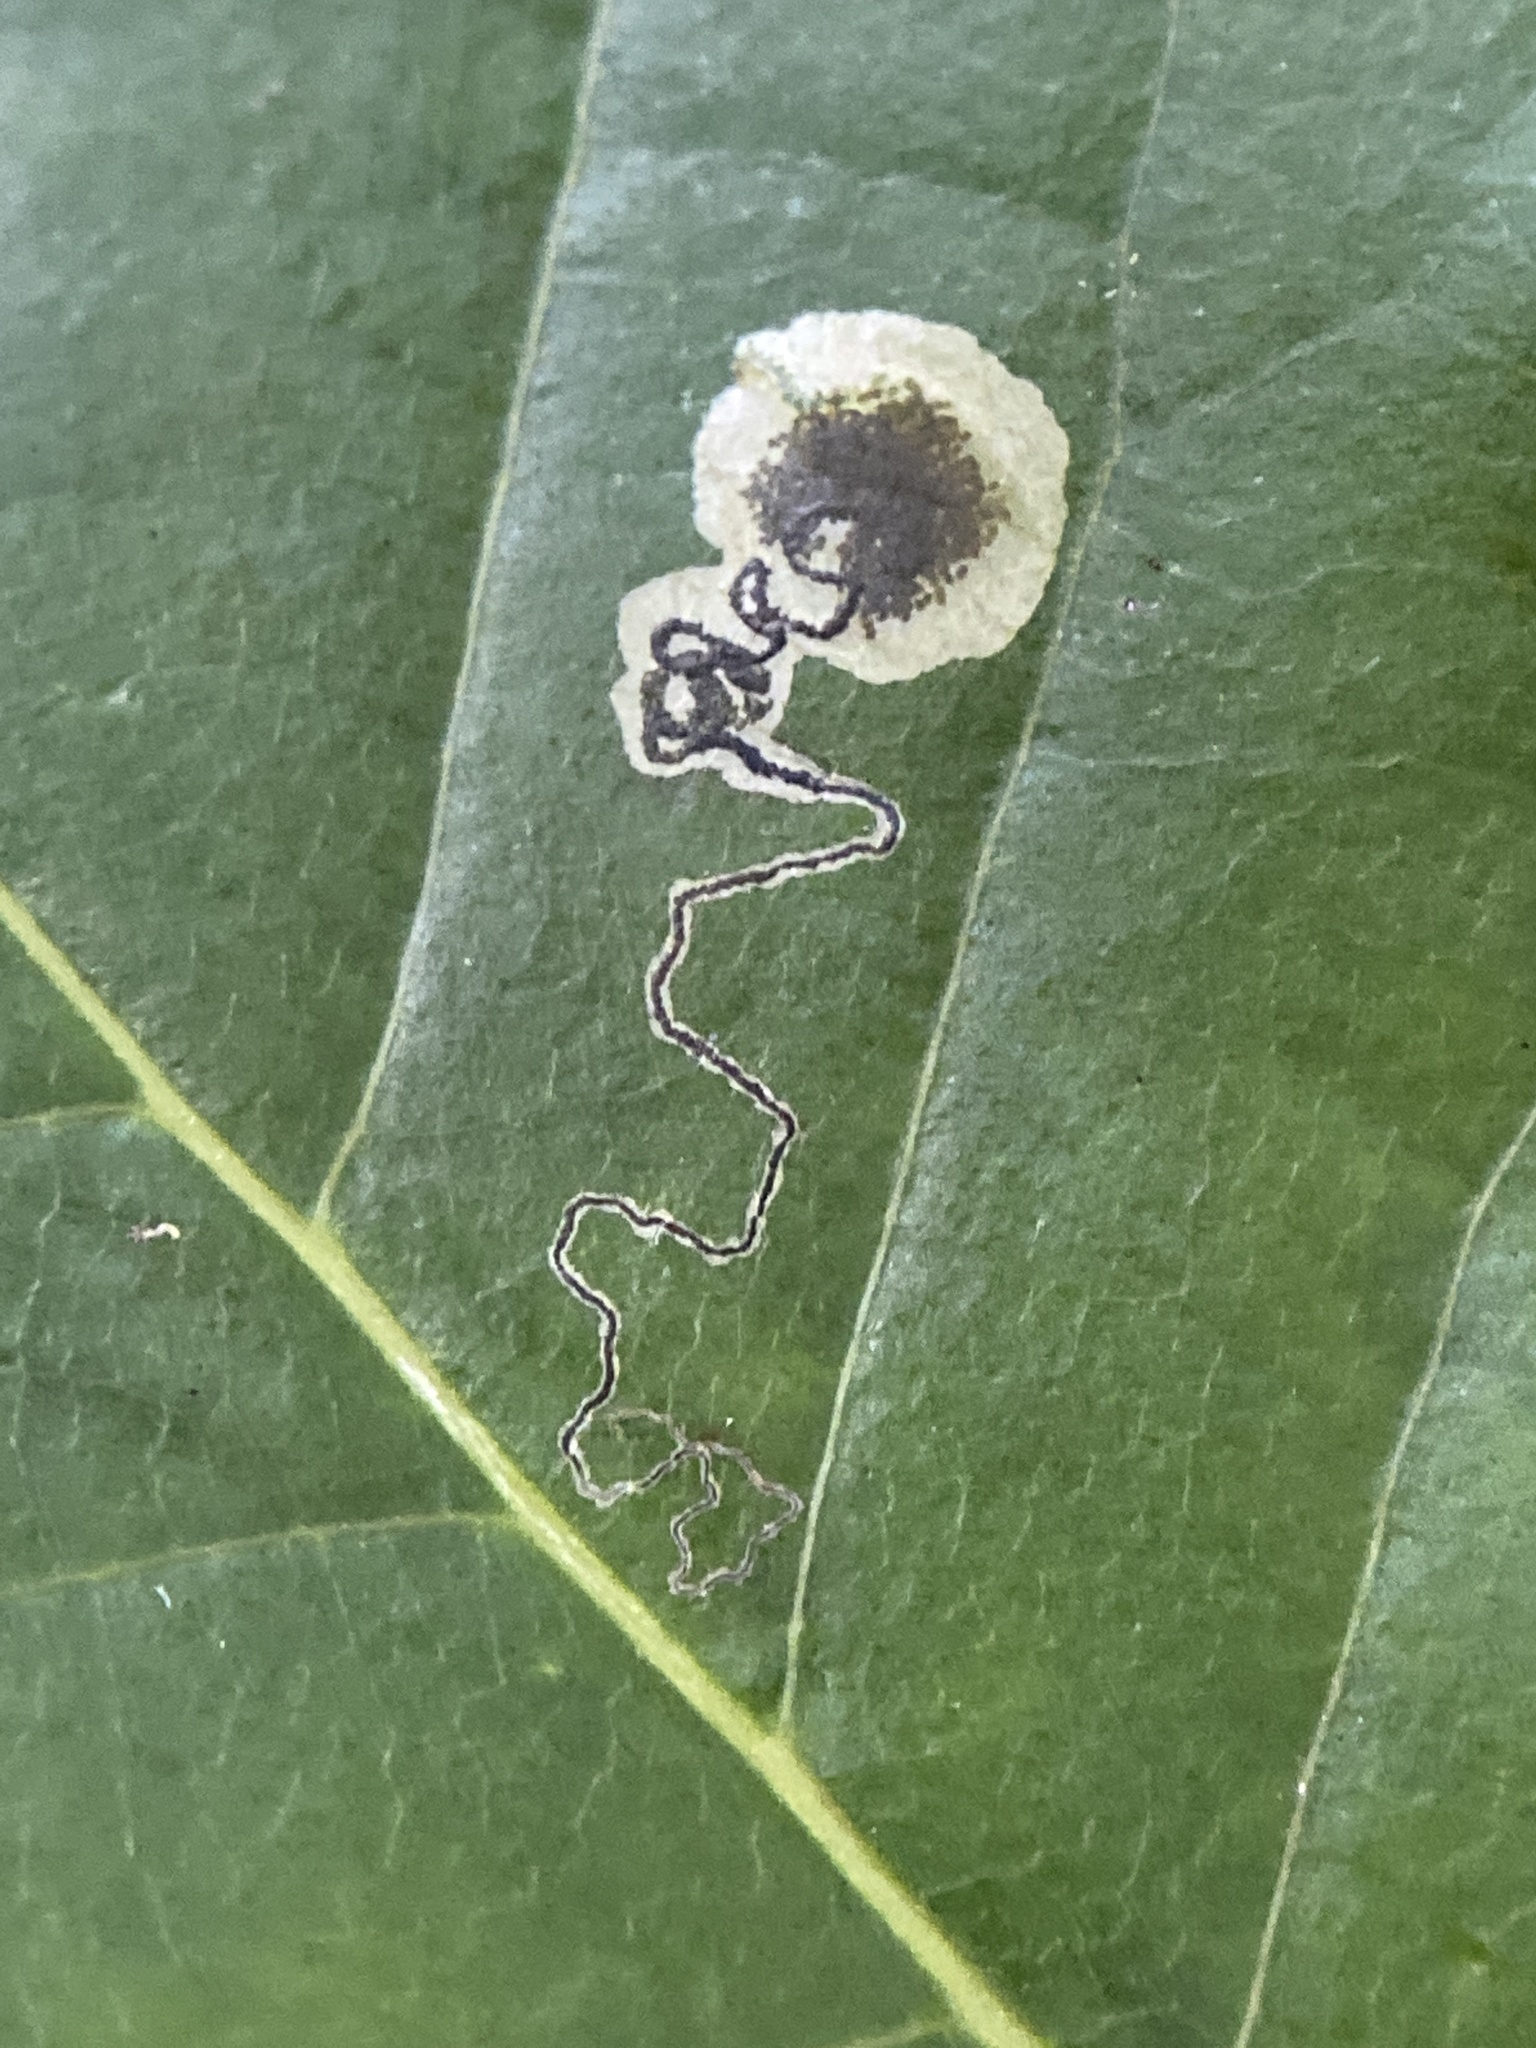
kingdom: Animalia
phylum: Arthropoda
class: Insecta
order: Lepidoptera
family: Nepticulidae
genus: Ectoedemia
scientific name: Ectoedemia nyssaefoliella
